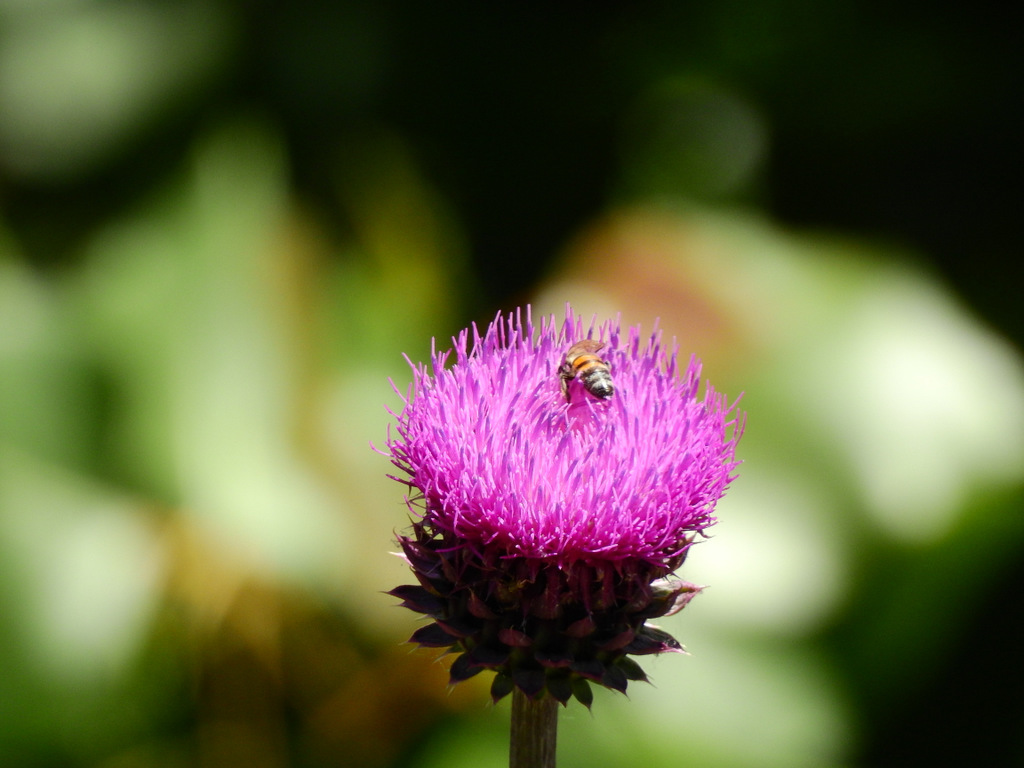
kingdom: Animalia
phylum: Arthropoda
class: Insecta
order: Hymenoptera
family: Apidae
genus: Apis
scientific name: Apis mellifera
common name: Honey bee
